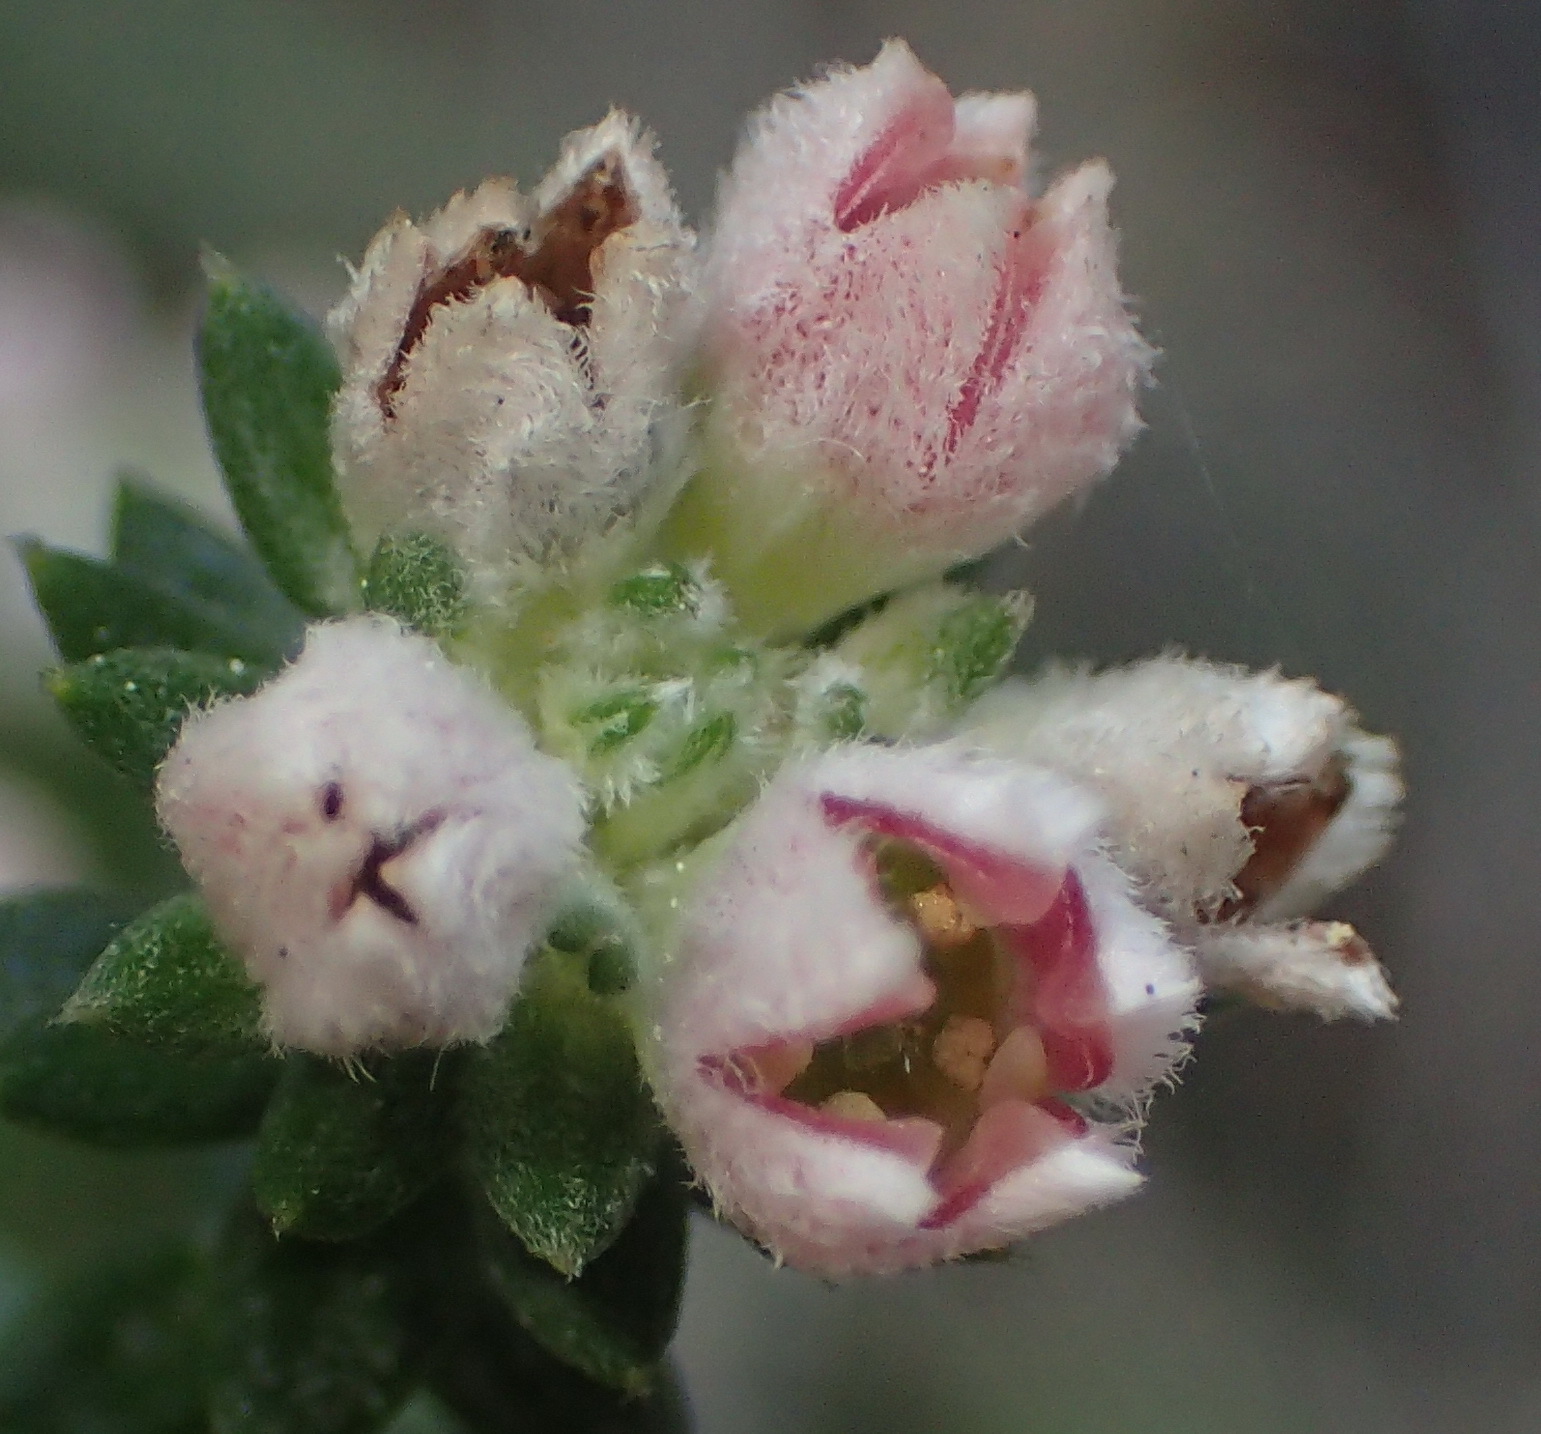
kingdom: Plantae
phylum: Tracheophyta
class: Magnoliopsida
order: Rosales
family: Rhamnaceae
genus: Phylica
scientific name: Phylica purpurea
